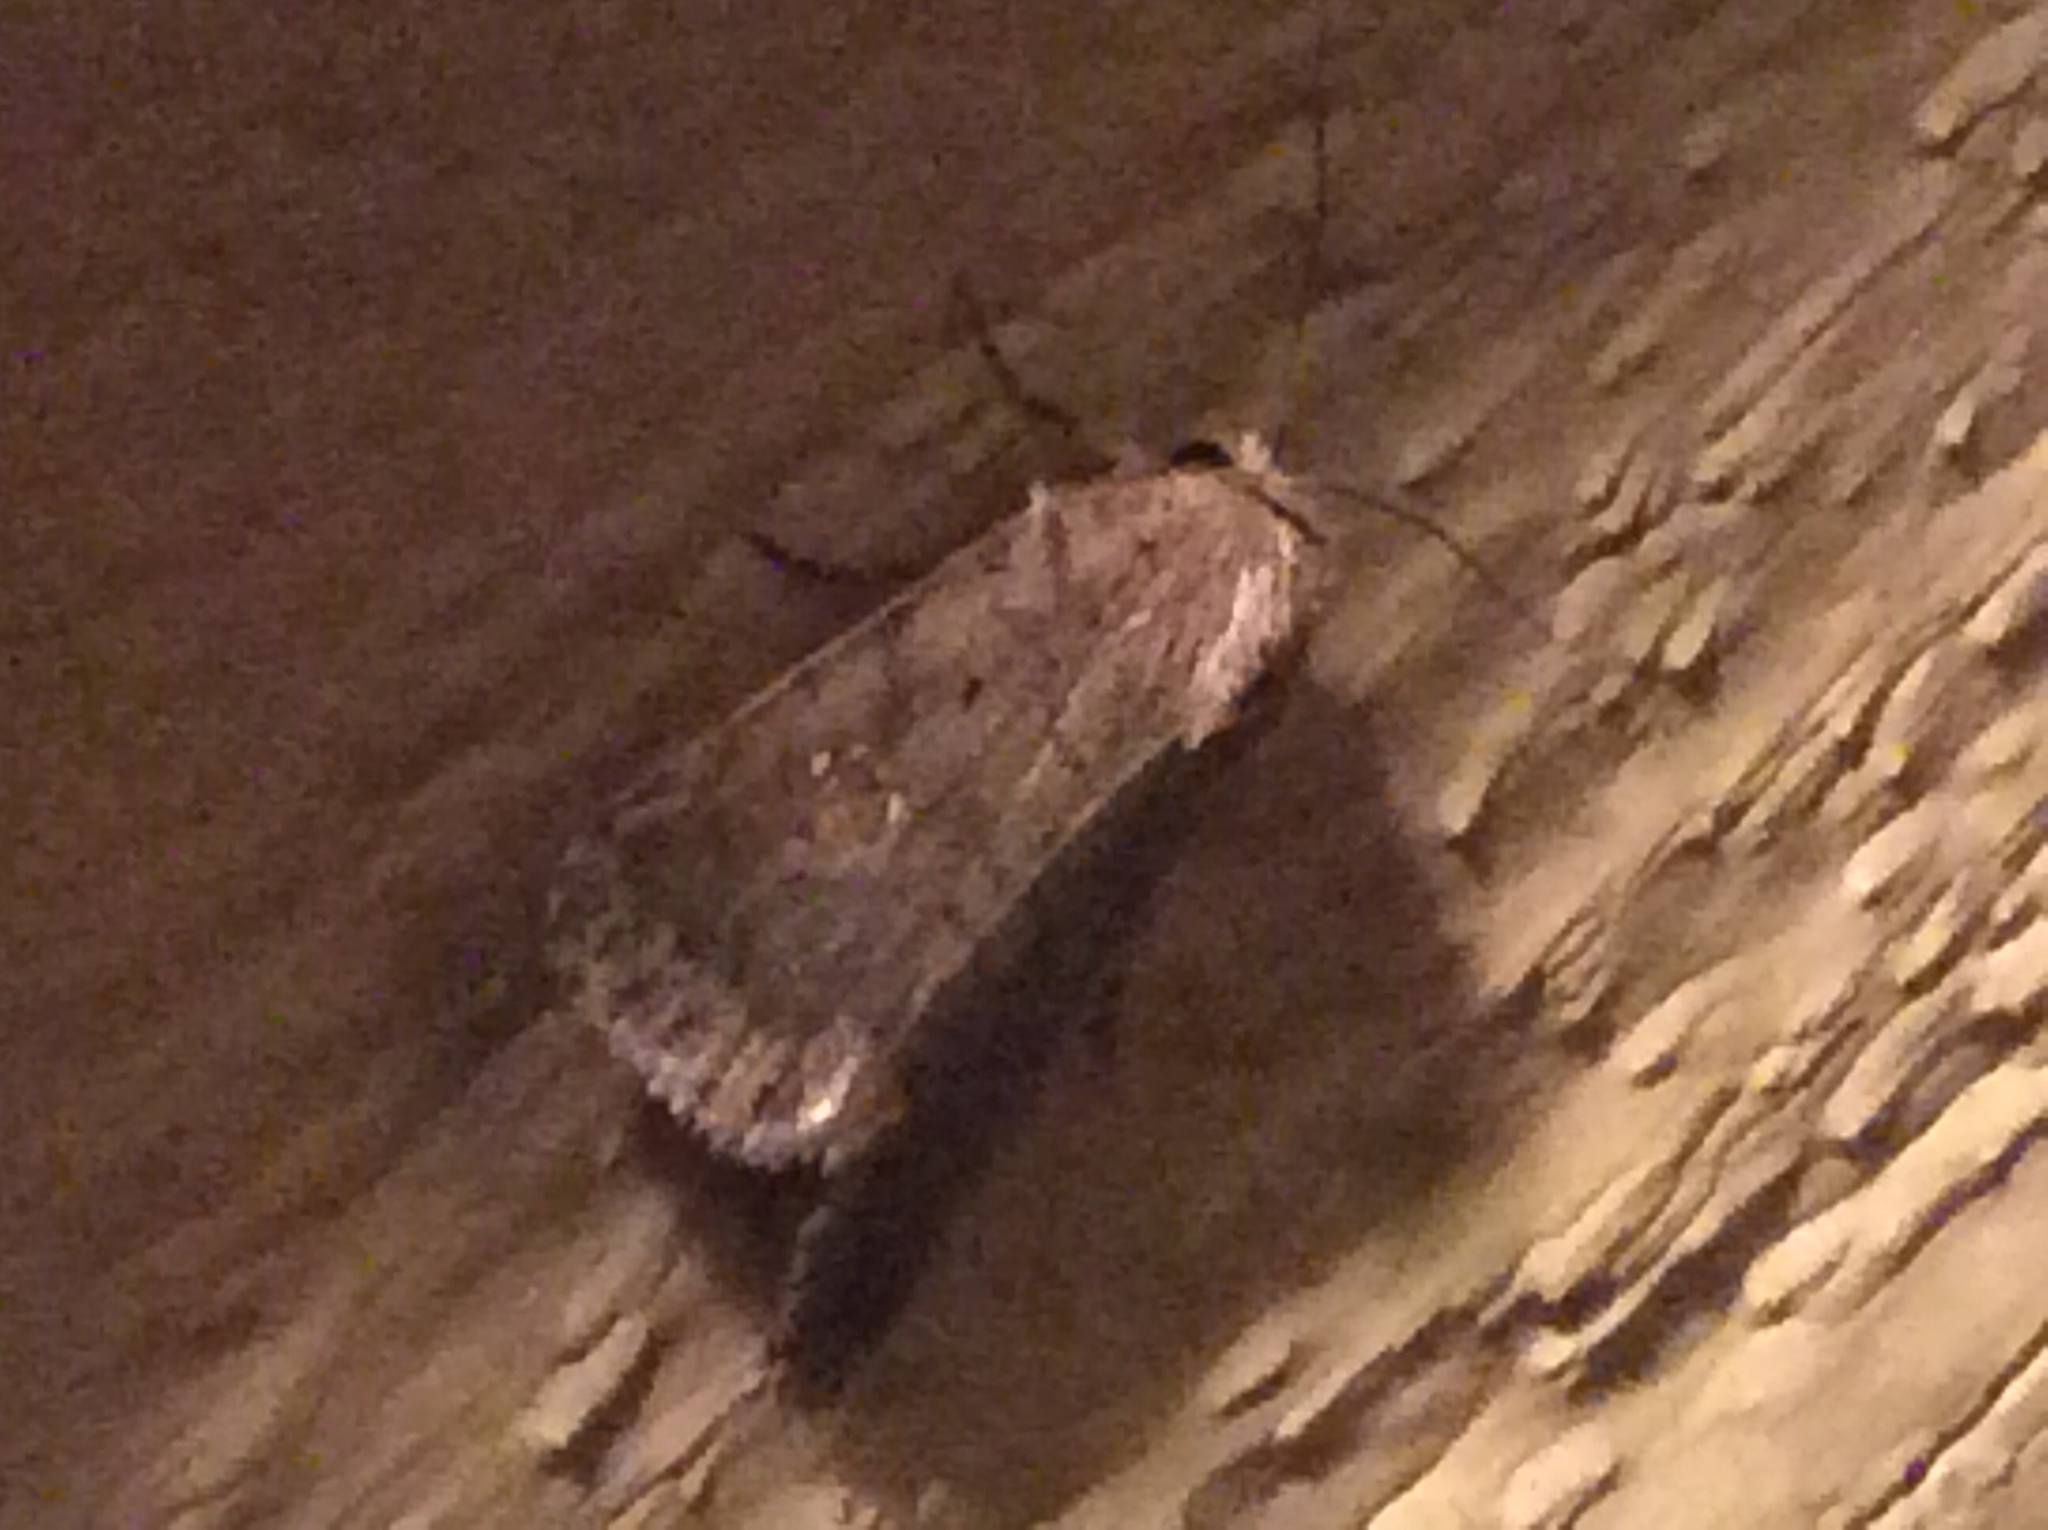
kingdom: Animalia
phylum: Arthropoda
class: Insecta
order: Lepidoptera
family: Noctuidae
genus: Athetis
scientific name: Athetis tarda
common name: Slowpoke moth
